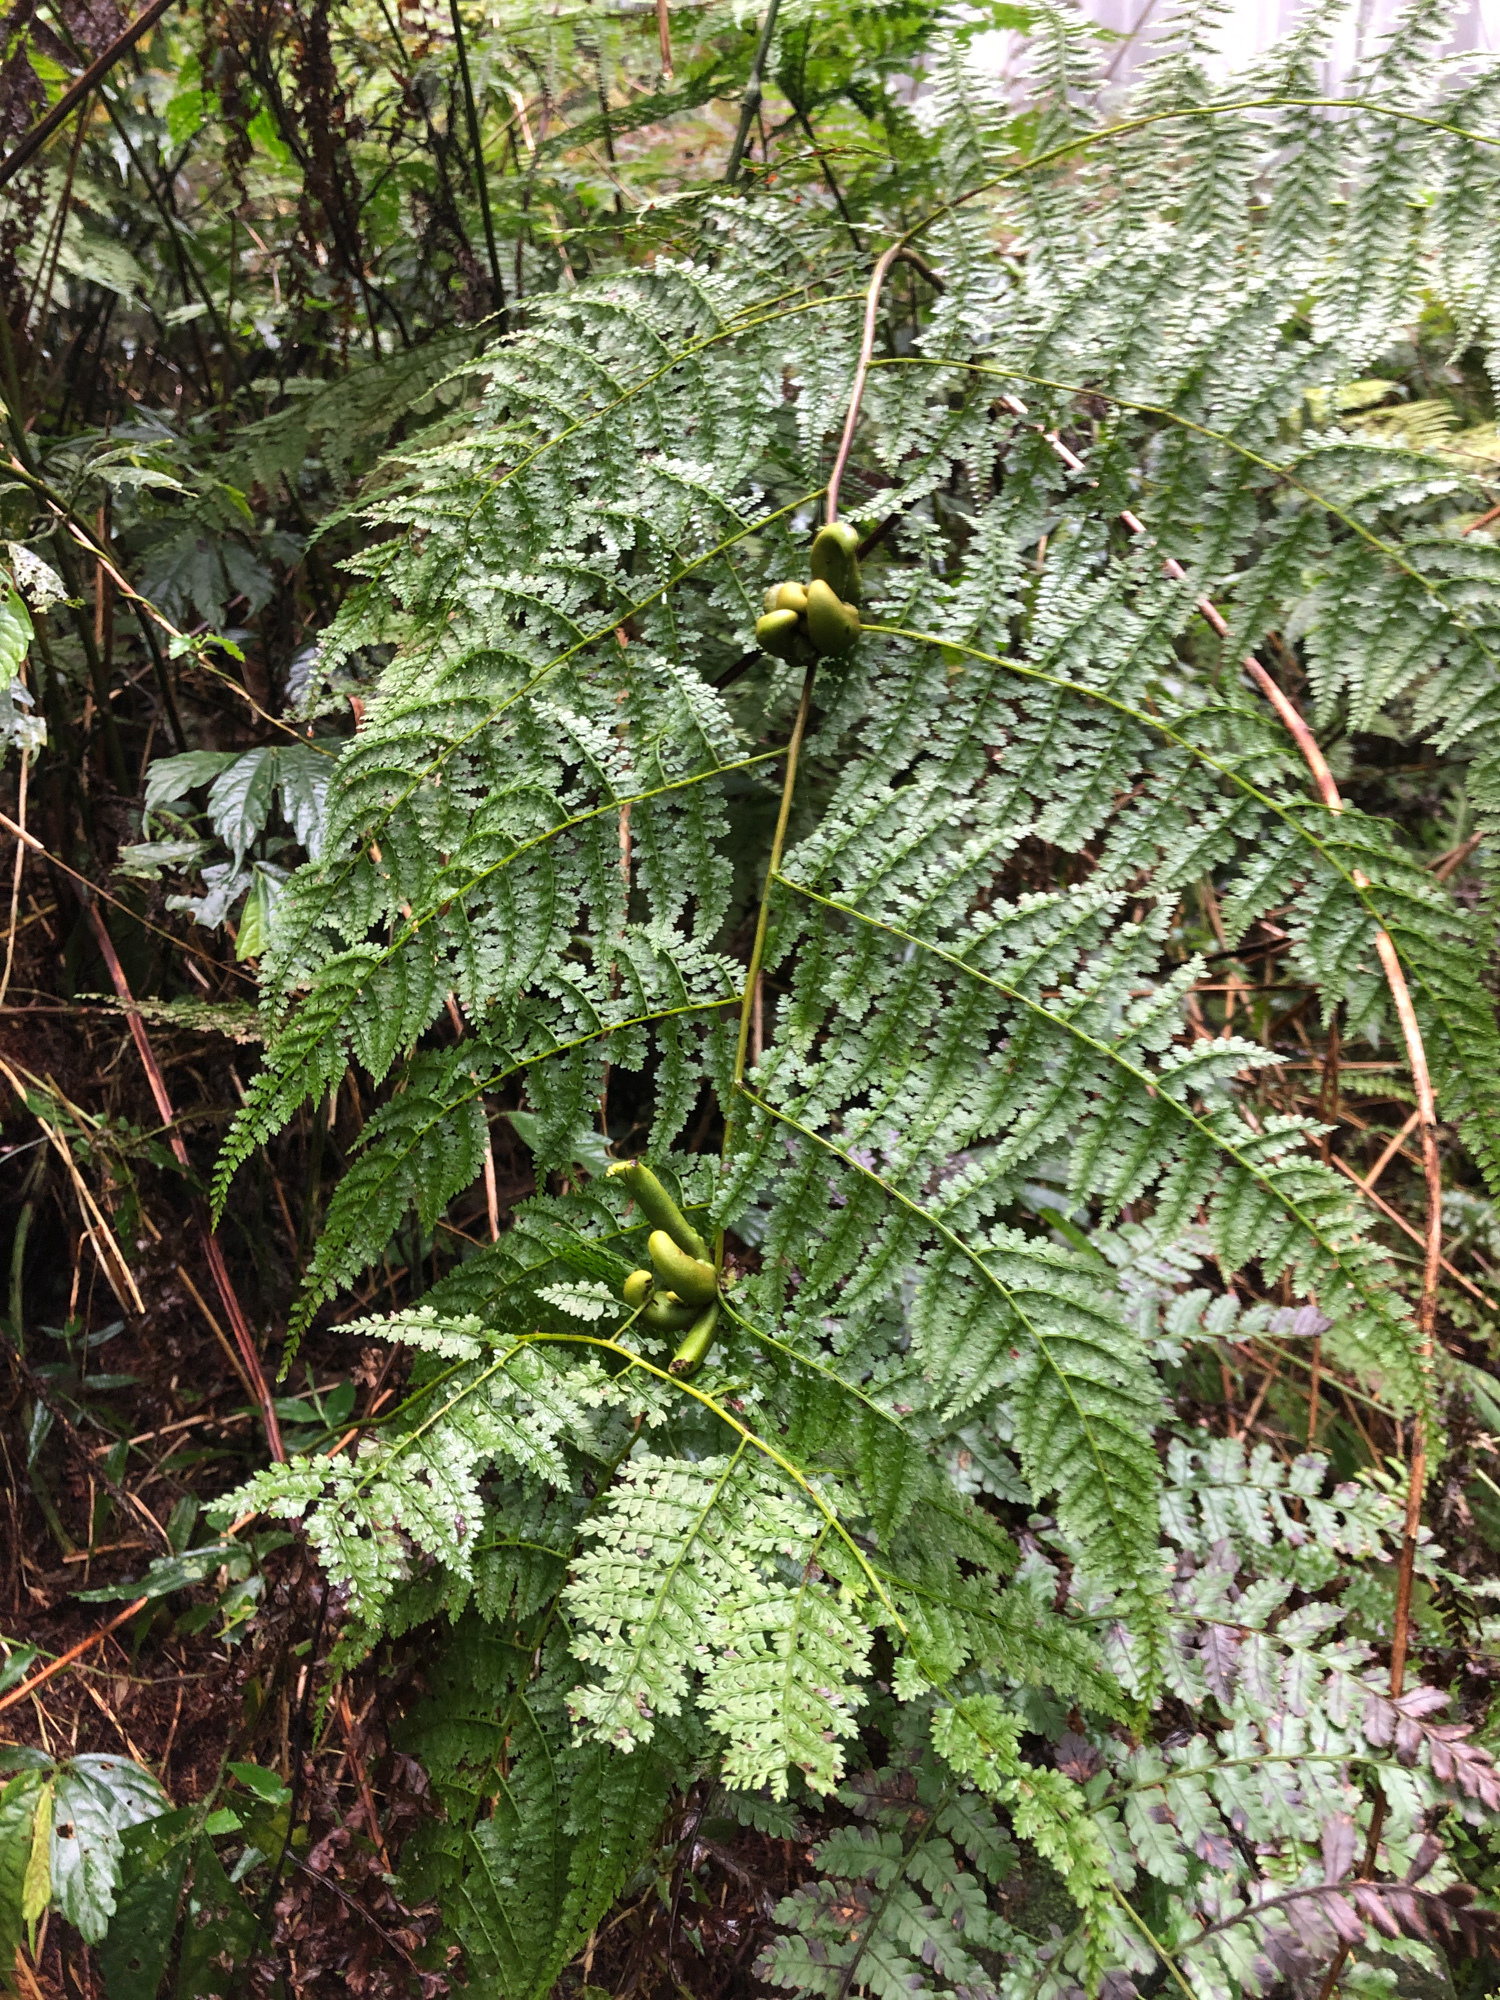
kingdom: Plantae
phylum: Tracheophyta
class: Polypodiopsida
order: Polypodiales
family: Dennstaedtiaceae
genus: Monachosorum
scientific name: Monachosorum henryi
